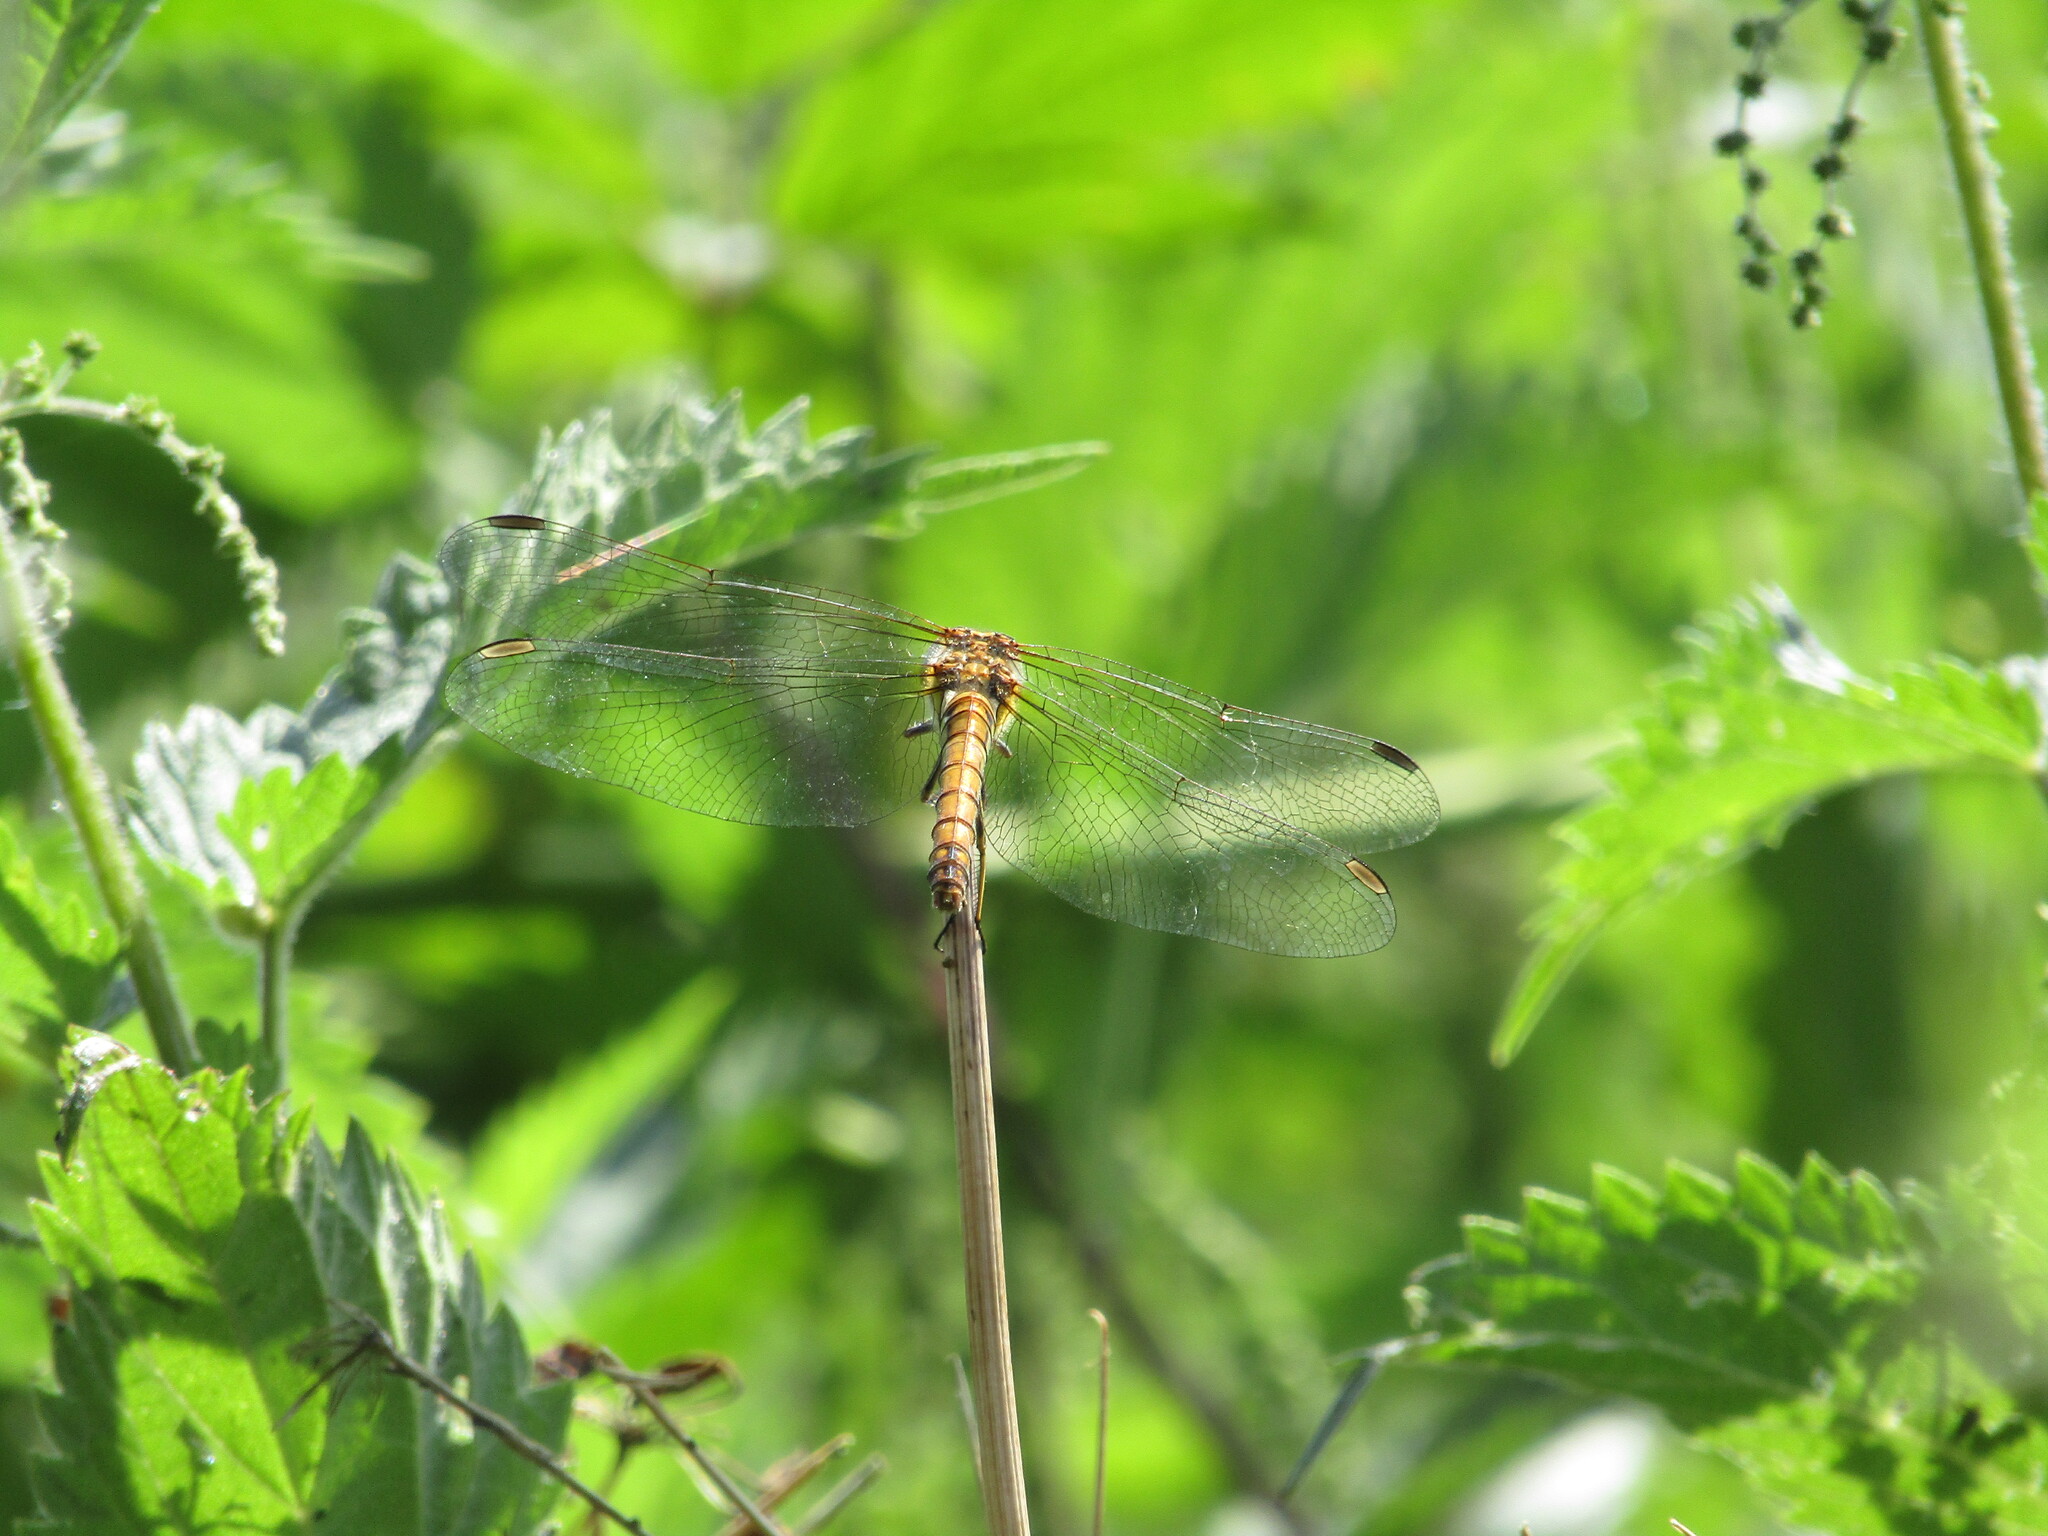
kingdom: Animalia
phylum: Arthropoda
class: Insecta
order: Odonata
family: Libellulidae
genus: Sympetrum
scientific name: Sympetrum striolatum
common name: Common darter
